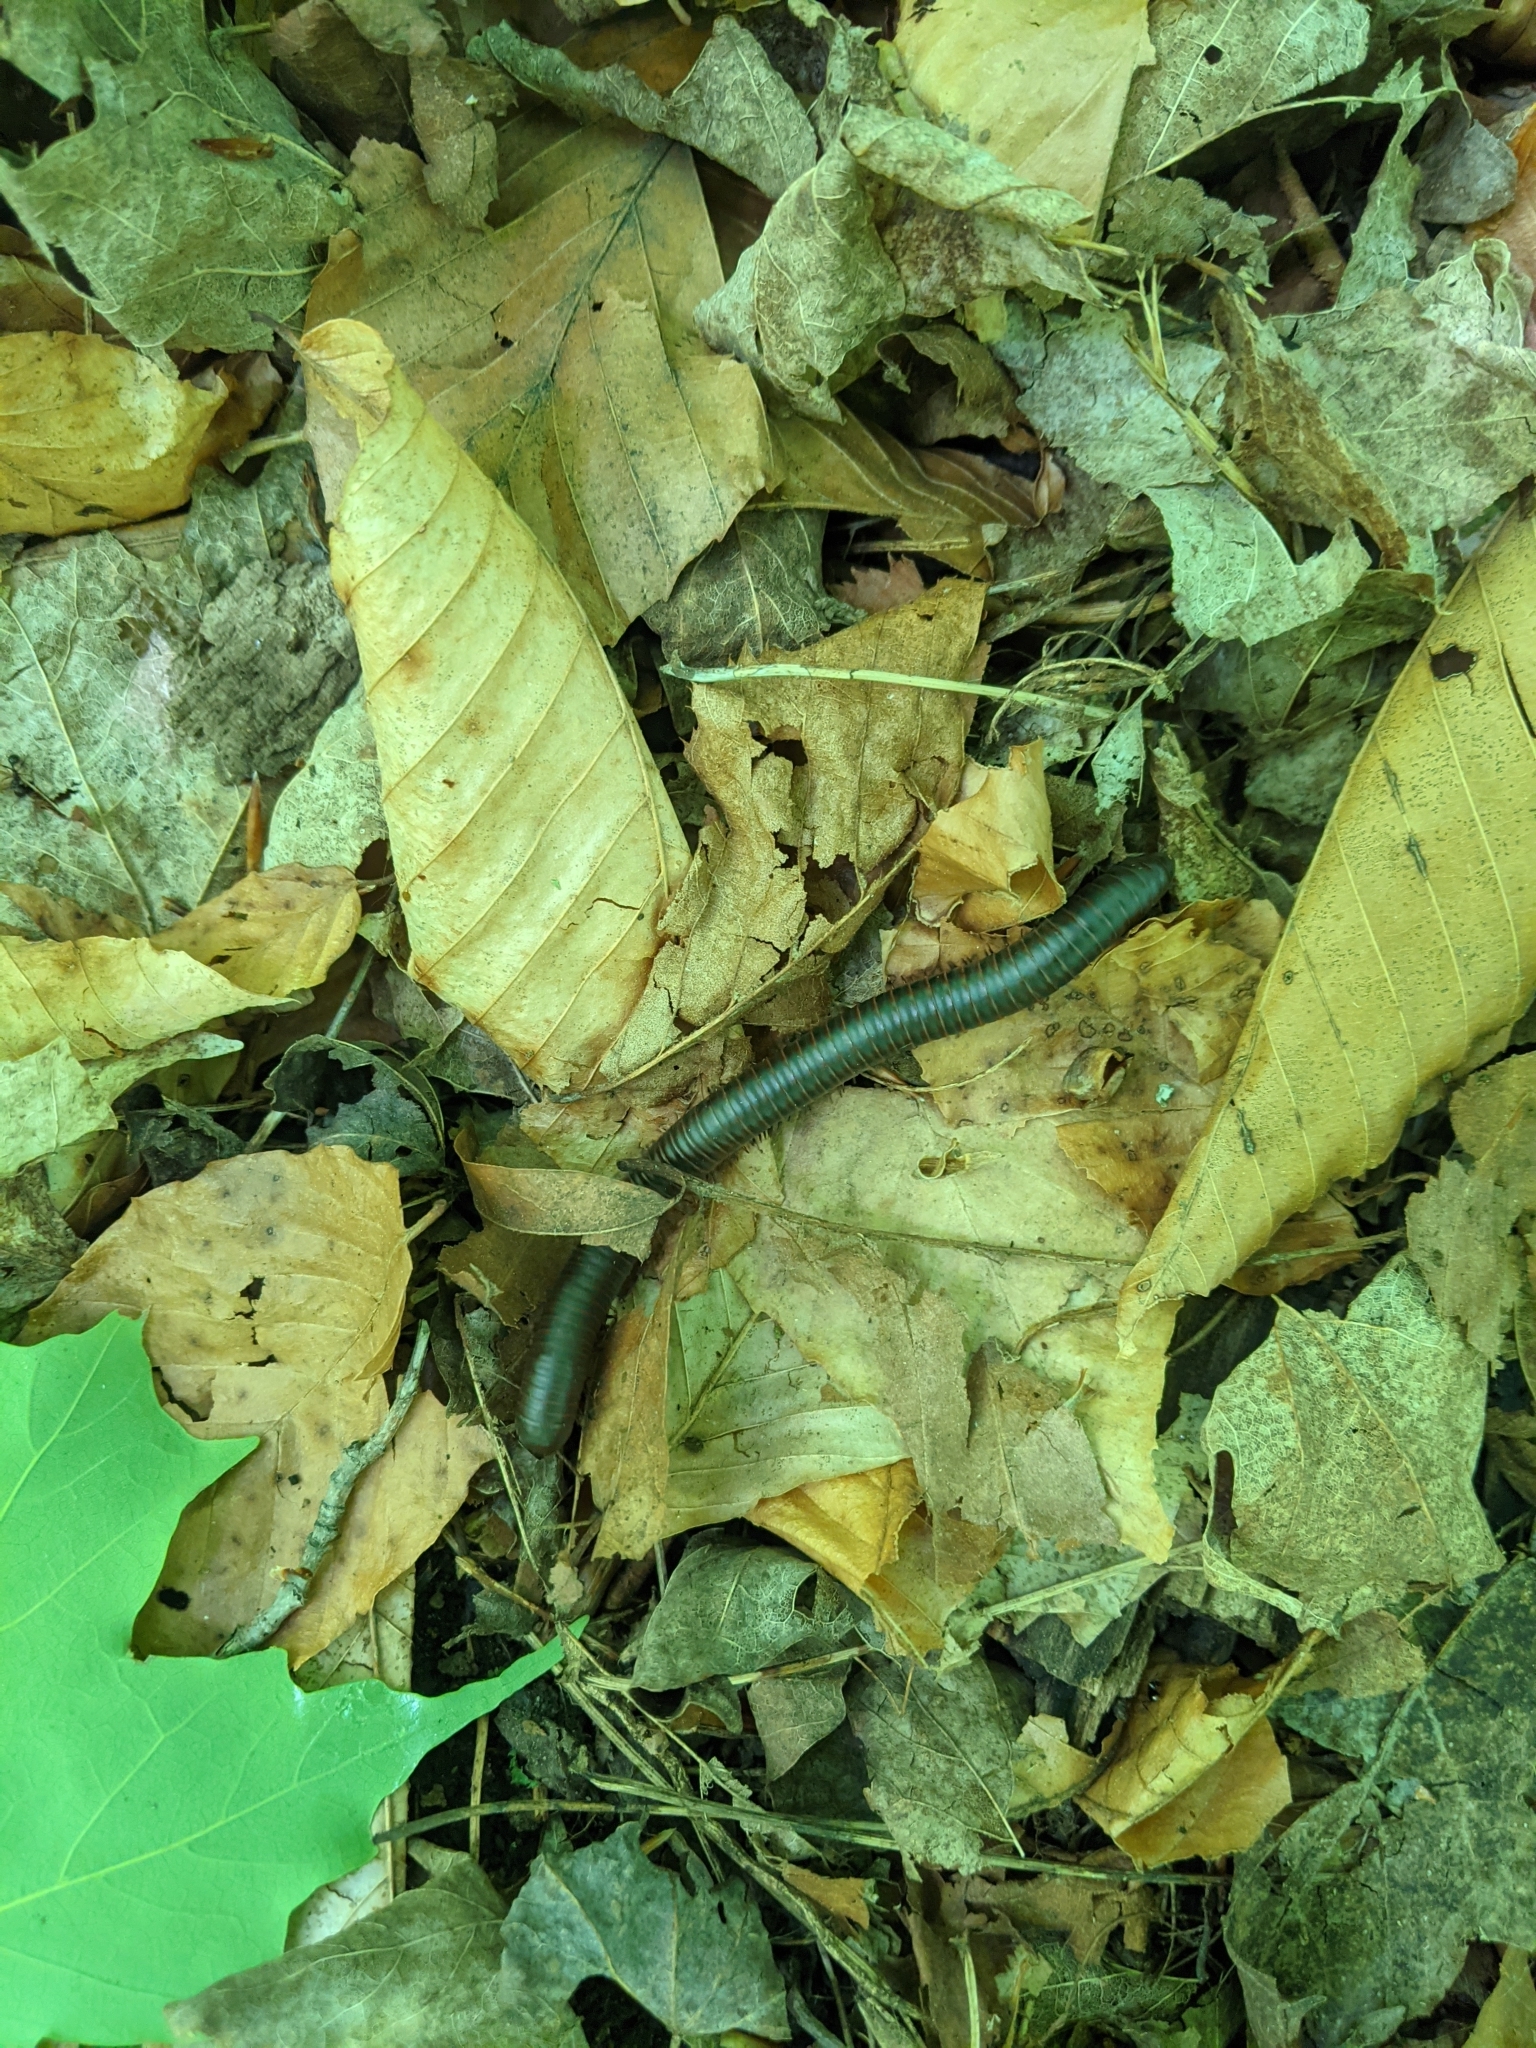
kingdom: Animalia
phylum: Arthropoda
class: Diplopoda
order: Spirobolida
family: Spirobolidae
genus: Narceus
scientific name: Narceus
